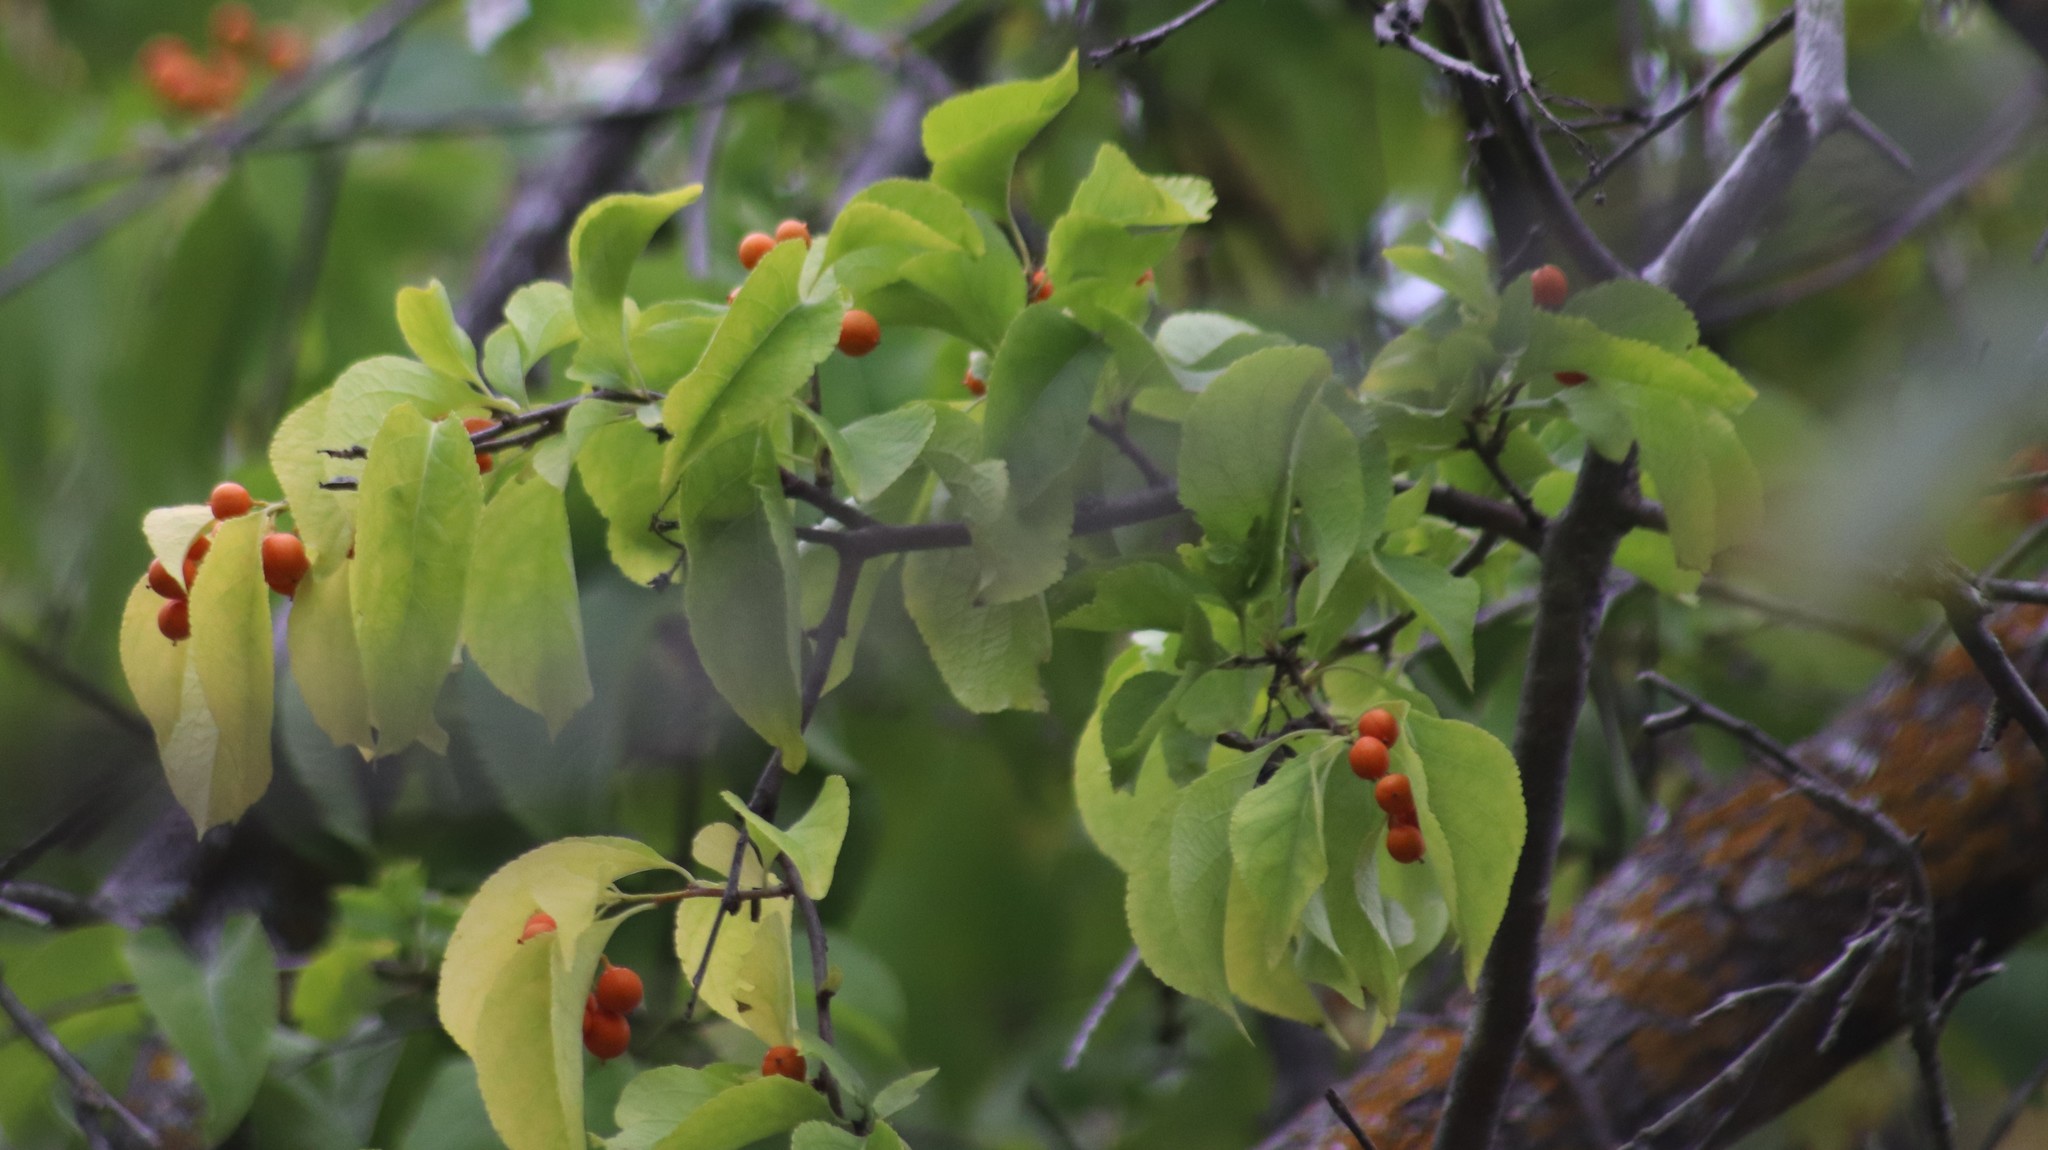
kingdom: Plantae
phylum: Tracheophyta
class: Magnoliopsida
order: Celastrales
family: Celastraceae
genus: Celastrus
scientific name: Celastrus scandens
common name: American bittersweet
